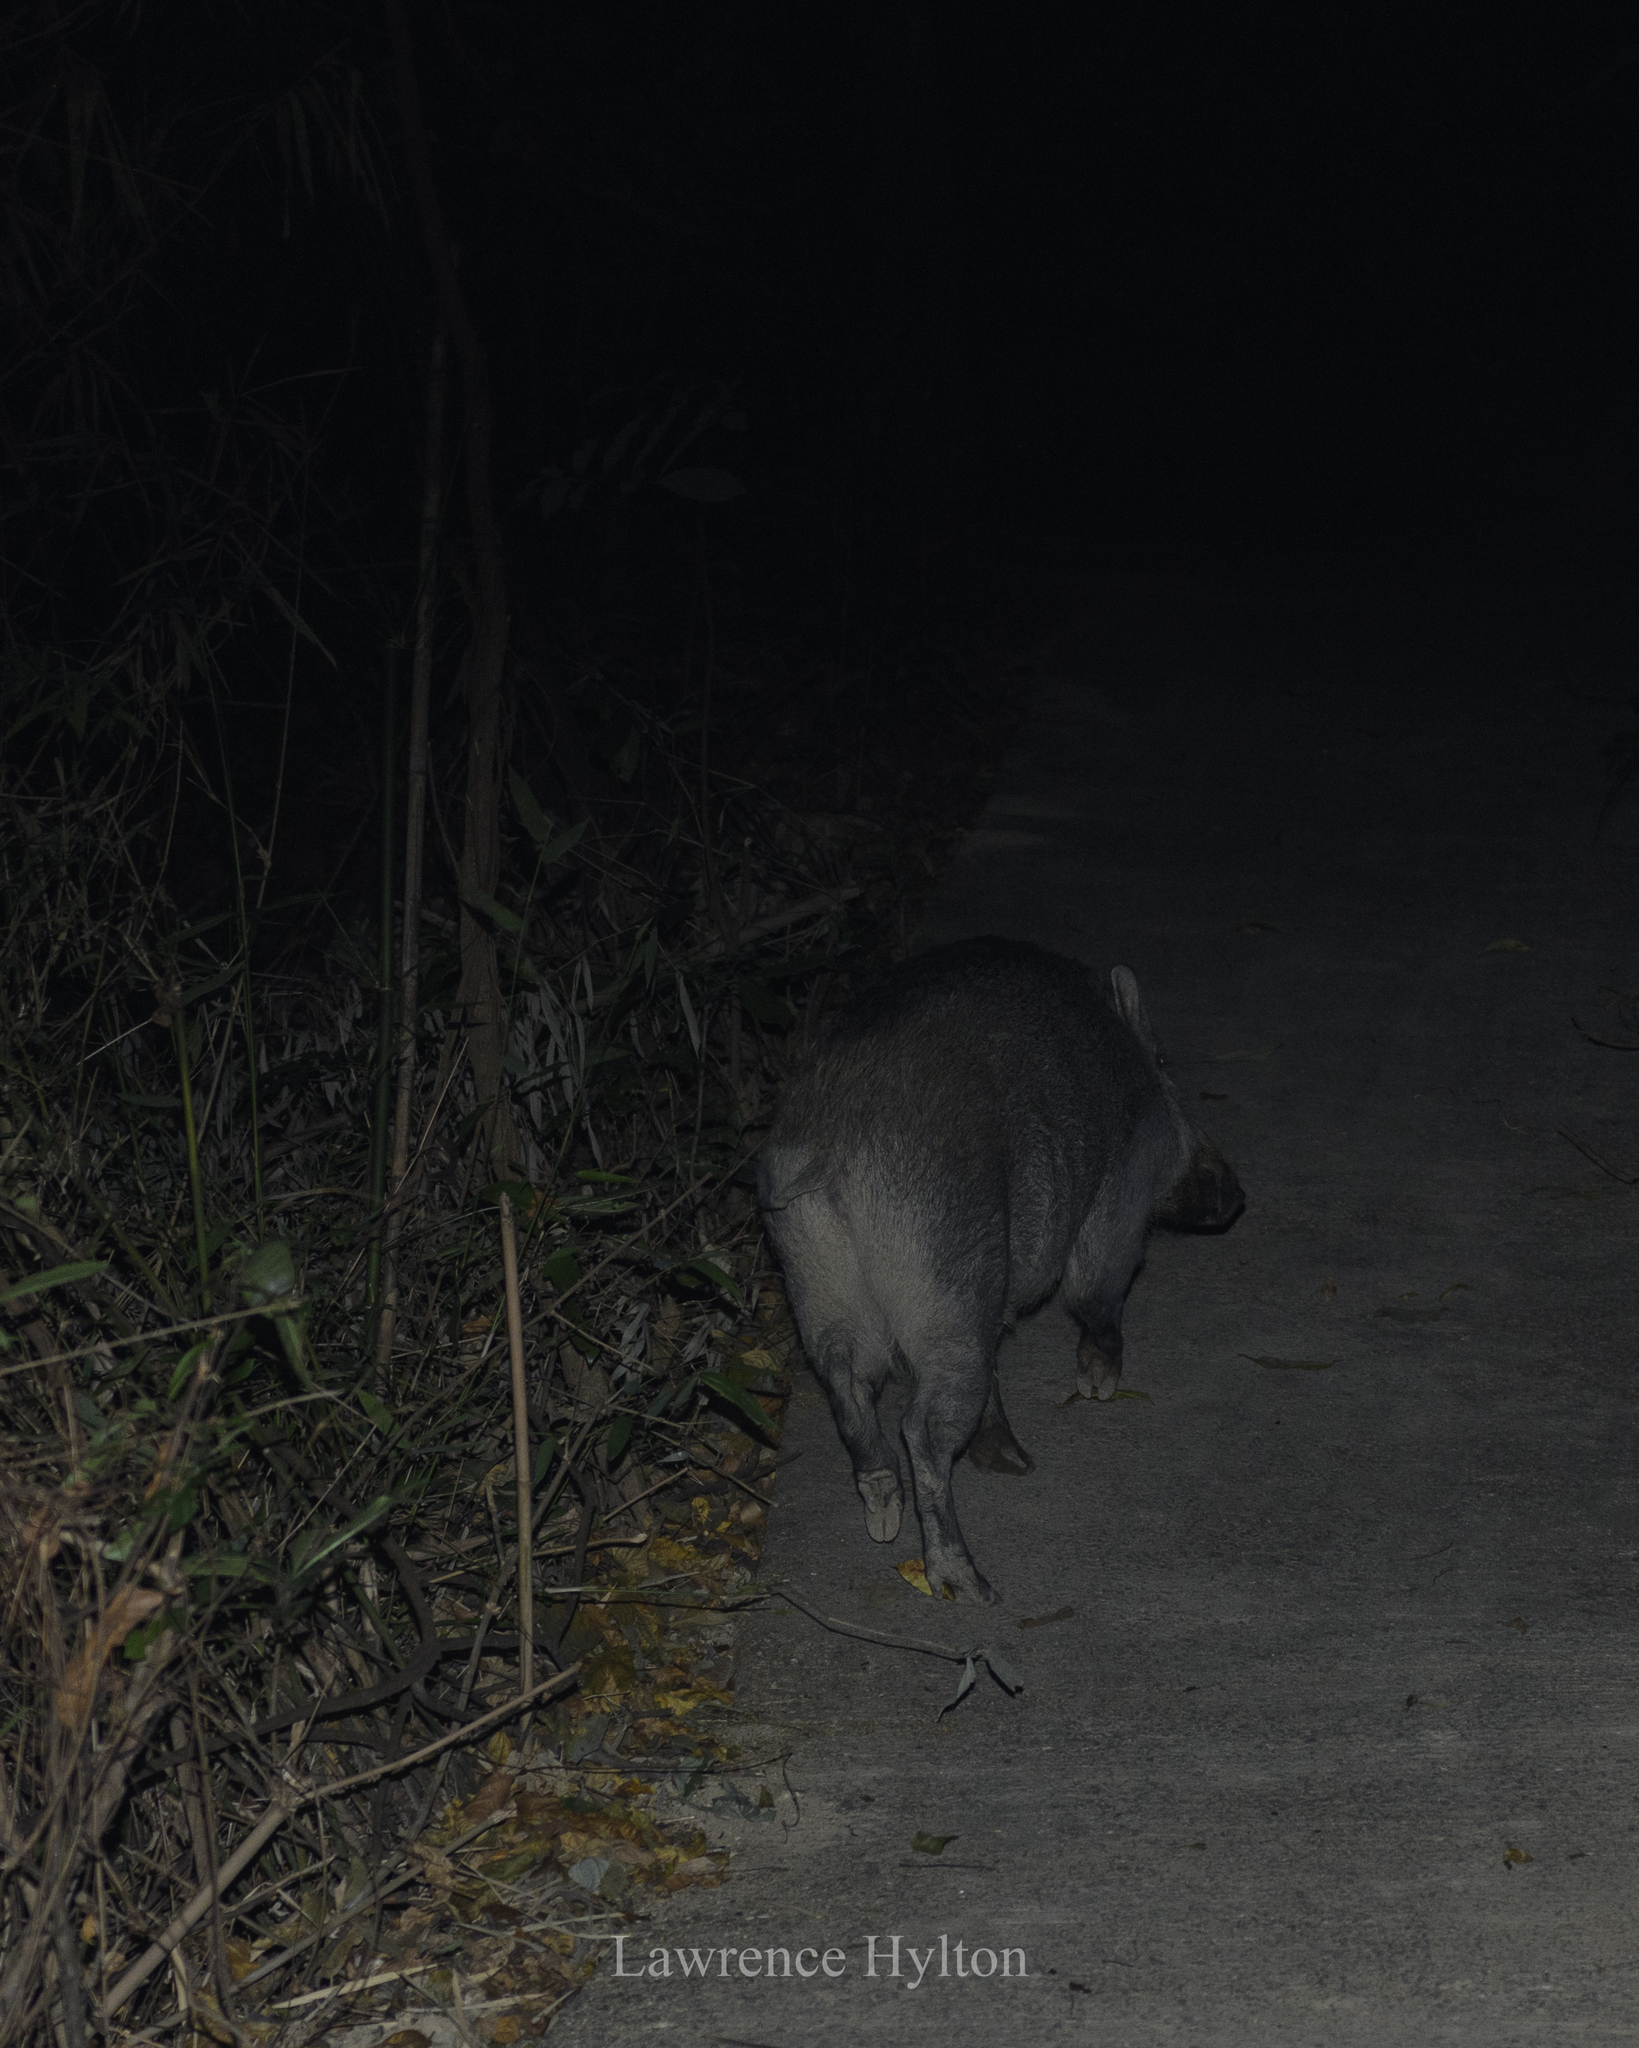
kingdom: Animalia
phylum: Chordata
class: Mammalia
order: Artiodactyla
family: Suidae
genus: Sus
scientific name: Sus scrofa
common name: Wild boar
